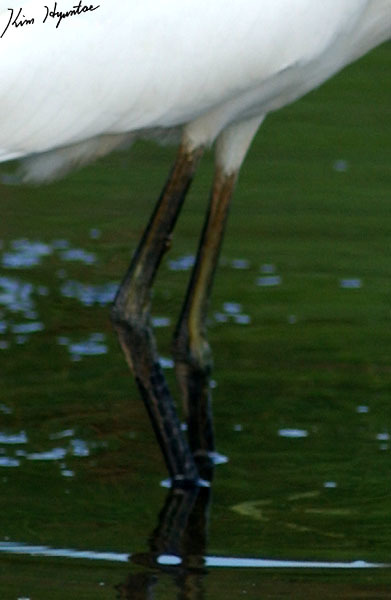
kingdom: Animalia
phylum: Chordata
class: Aves
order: Pelecaniformes
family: Ardeidae
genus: Egretta
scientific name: Egretta garzetta
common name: Little egret
